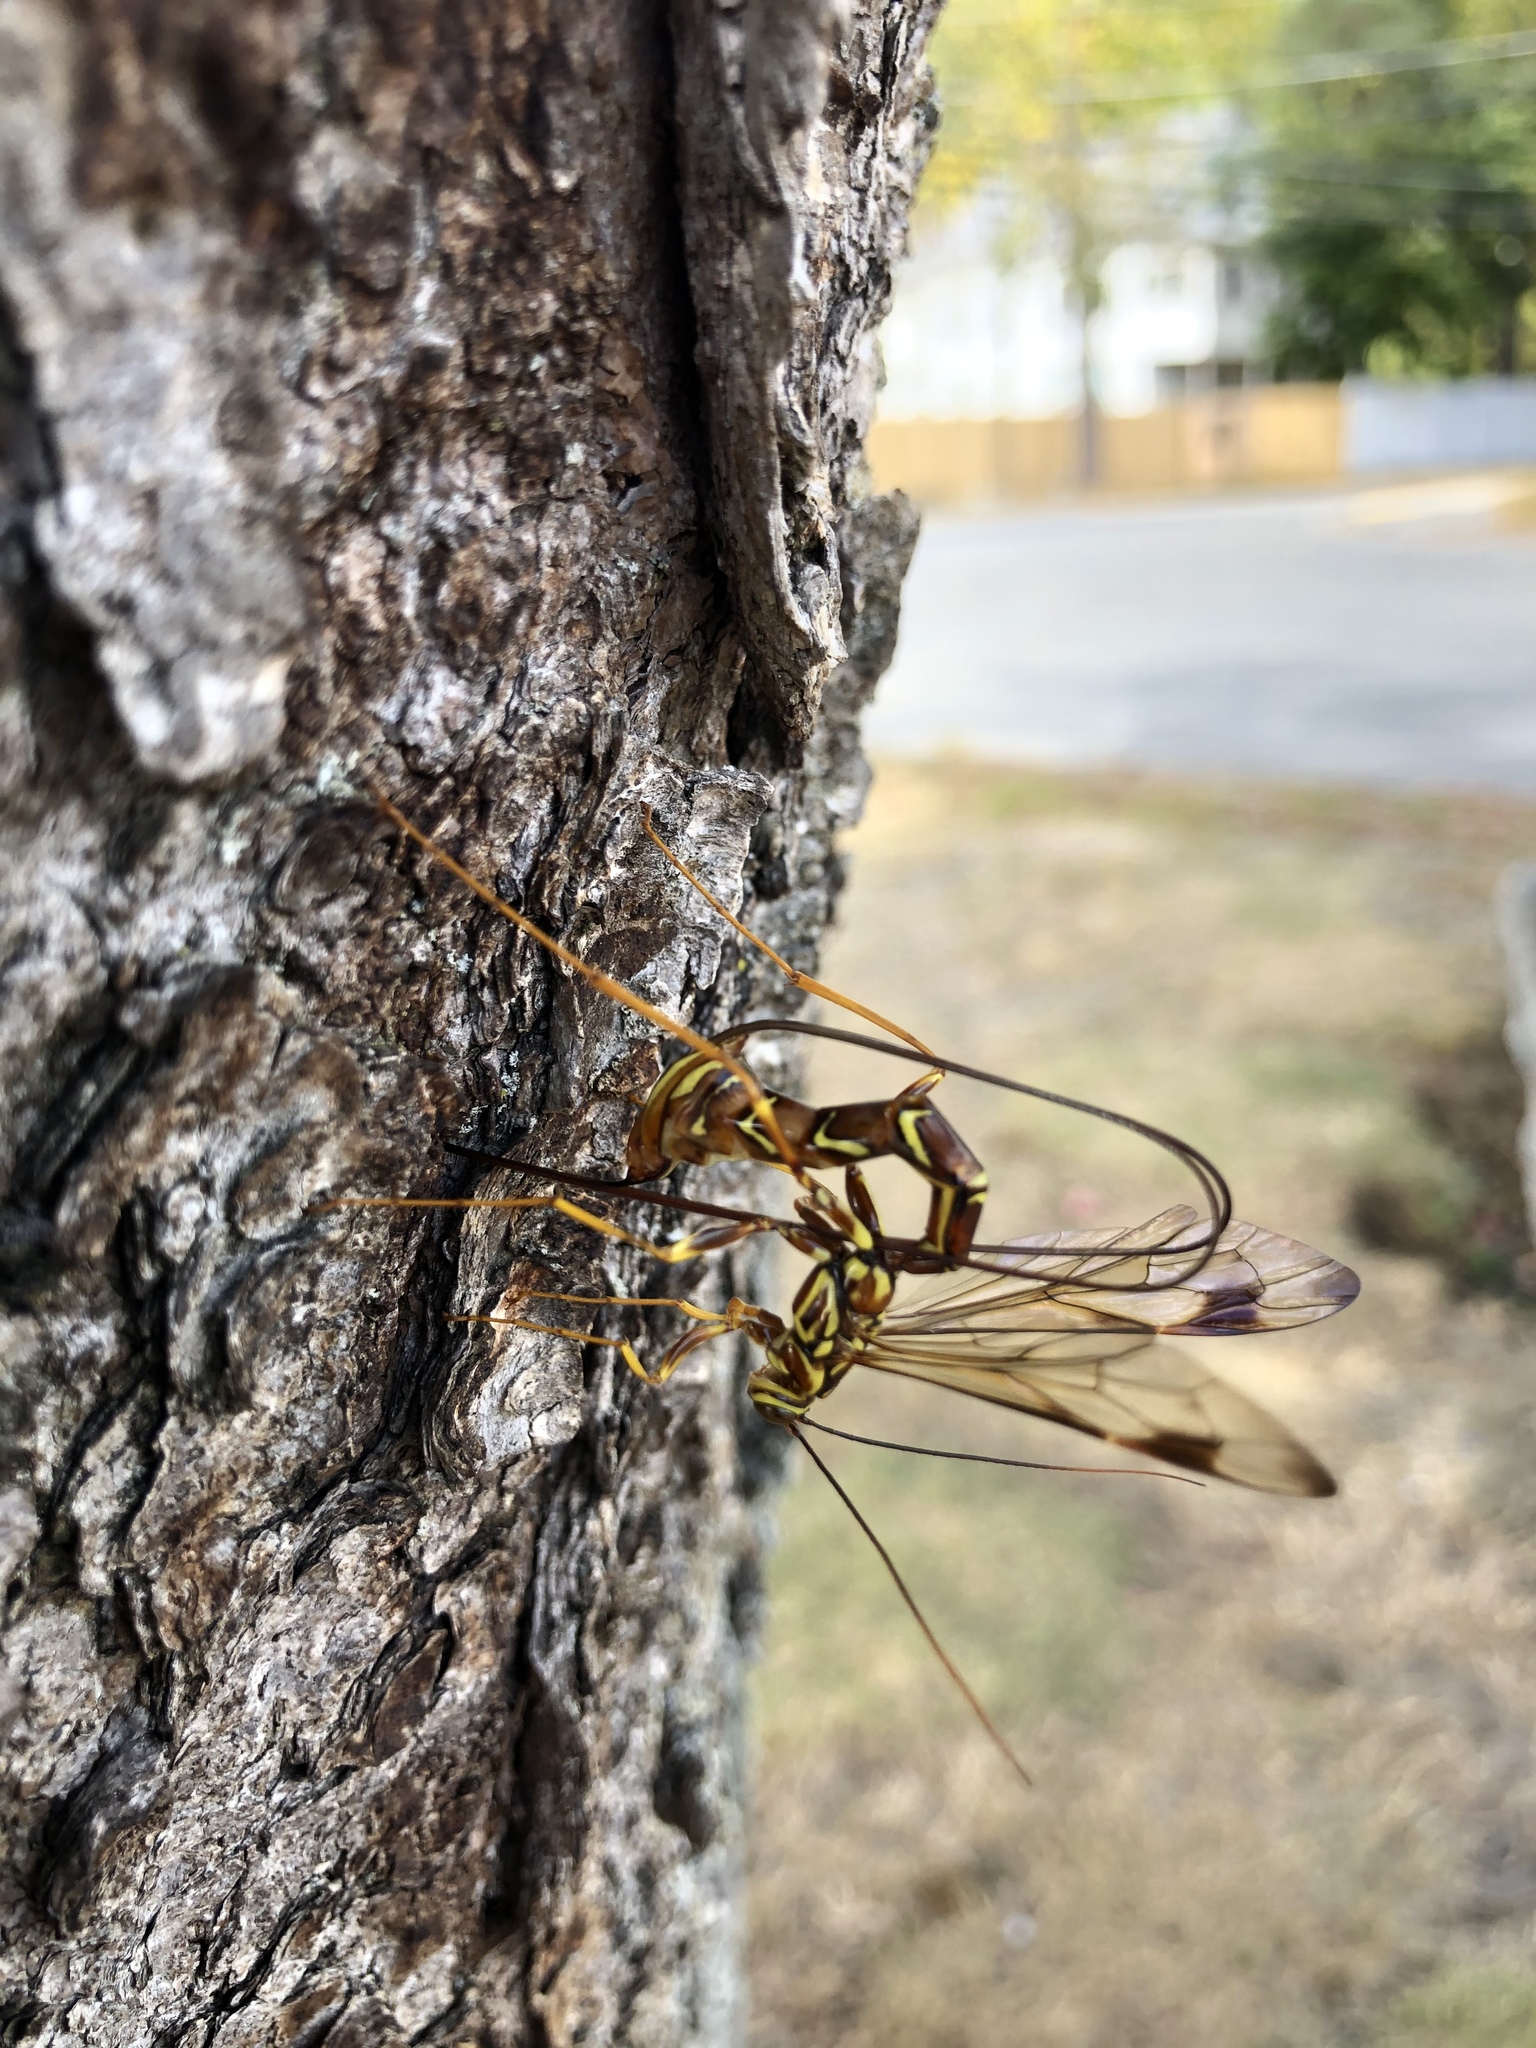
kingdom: Animalia
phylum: Arthropoda
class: Insecta
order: Hymenoptera
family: Ichneumonidae
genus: Megarhyssa
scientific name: Megarhyssa macrura
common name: Long-tailed giant ichneumonid wasp
